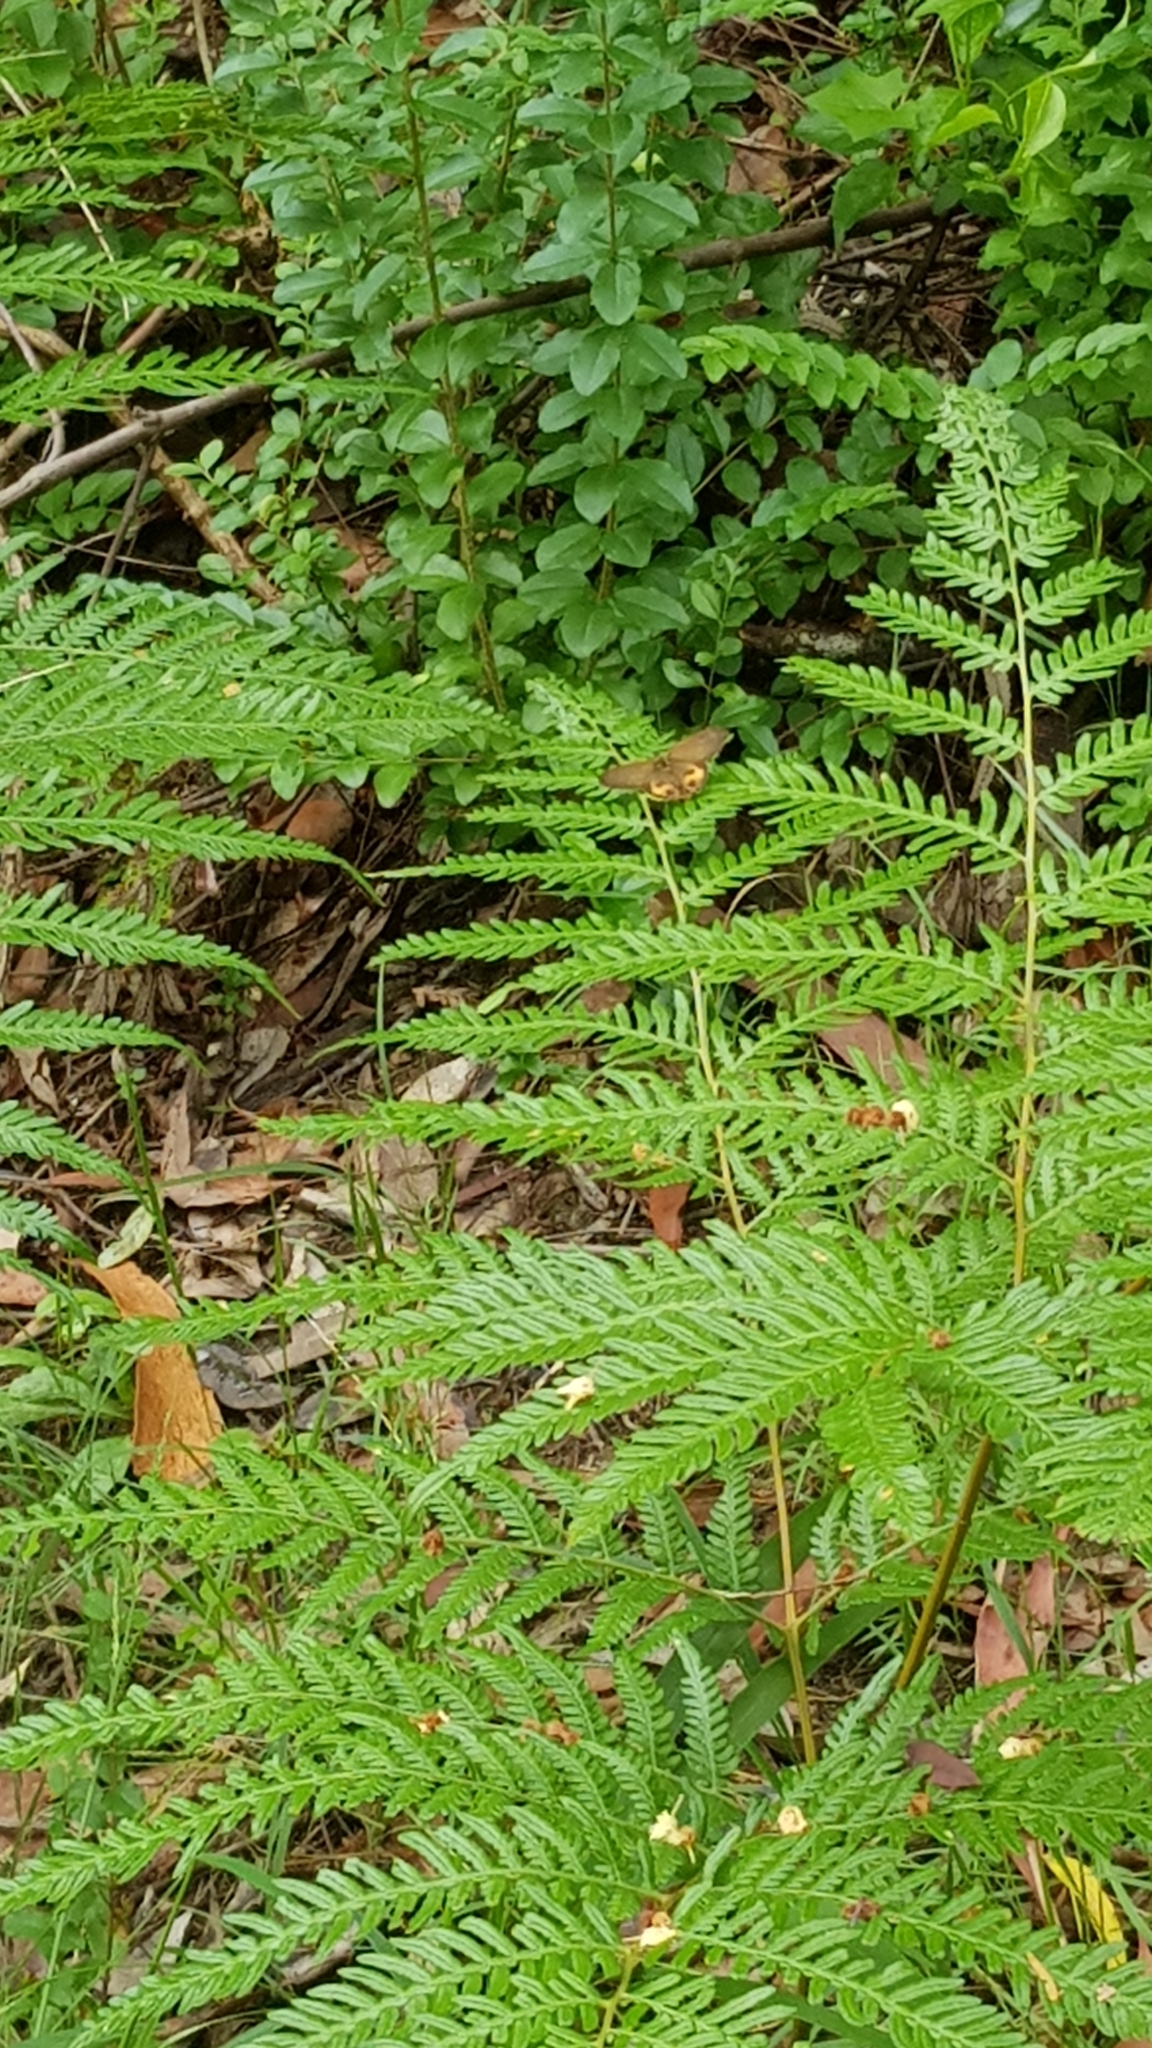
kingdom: Animalia
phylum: Arthropoda
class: Insecta
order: Lepidoptera
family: Nymphalidae
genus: Hypocysta
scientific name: Hypocysta metirius
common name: Brown ringlet
